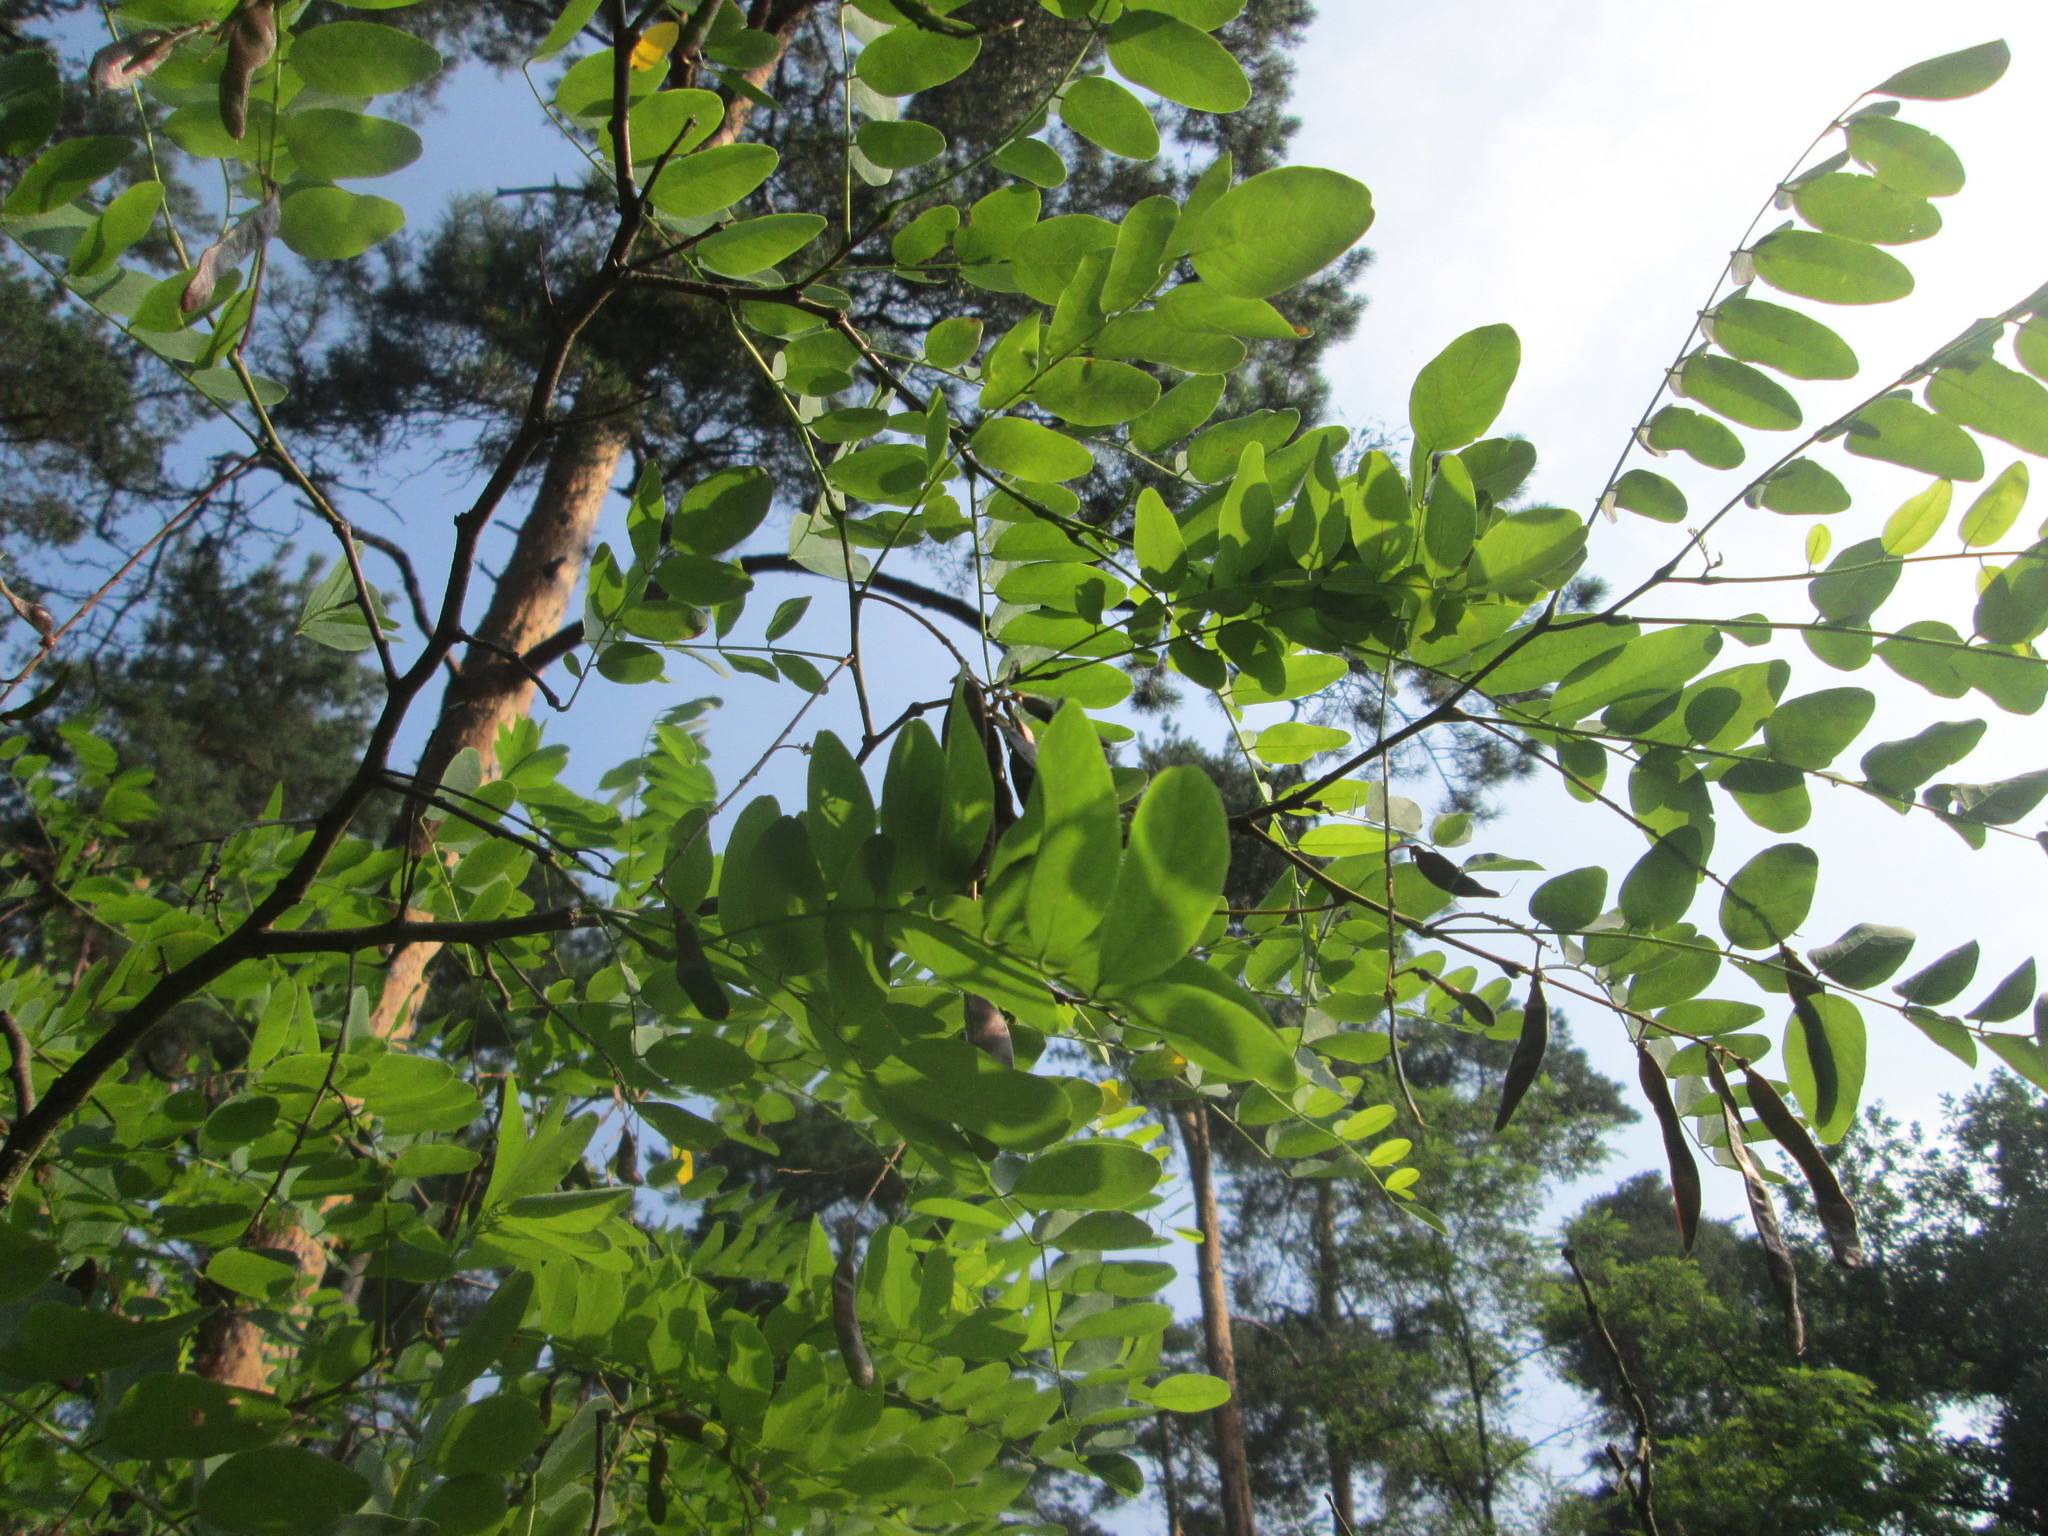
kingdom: Plantae
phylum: Tracheophyta
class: Magnoliopsida
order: Fabales
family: Fabaceae
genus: Robinia
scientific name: Robinia pseudoacacia
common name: Black locust
